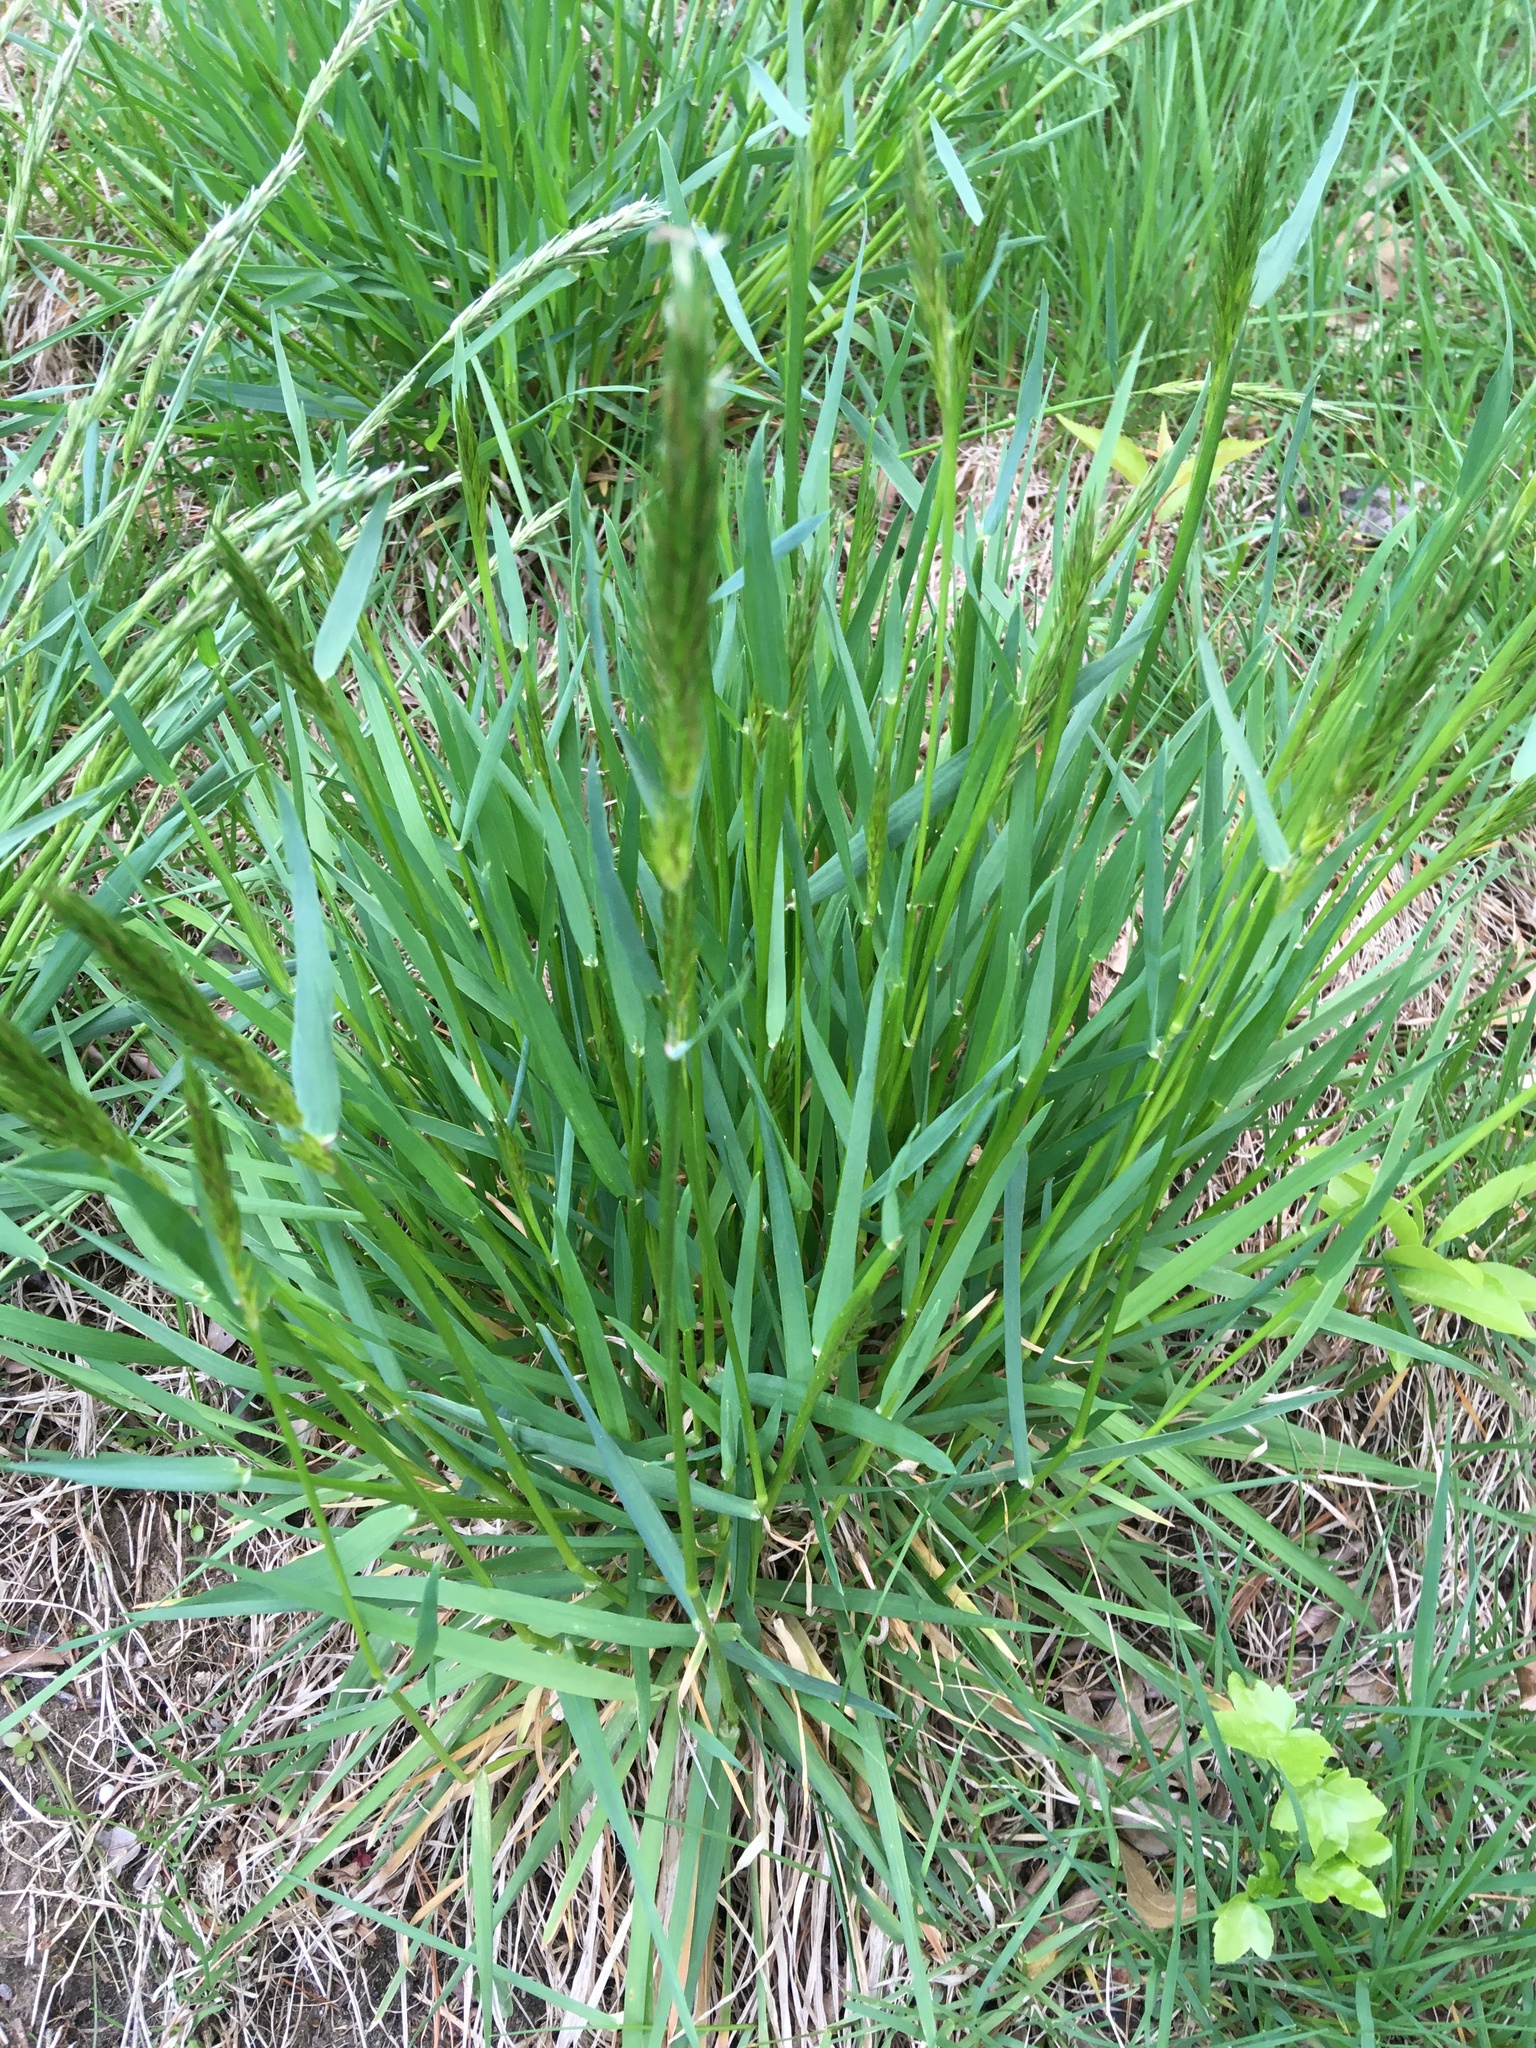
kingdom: Plantae
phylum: Tracheophyta
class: Liliopsida
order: Poales
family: Poaceae
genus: Anthoxanthum
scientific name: Anthoxanthum odoratum
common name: Sweet vernalgrass
